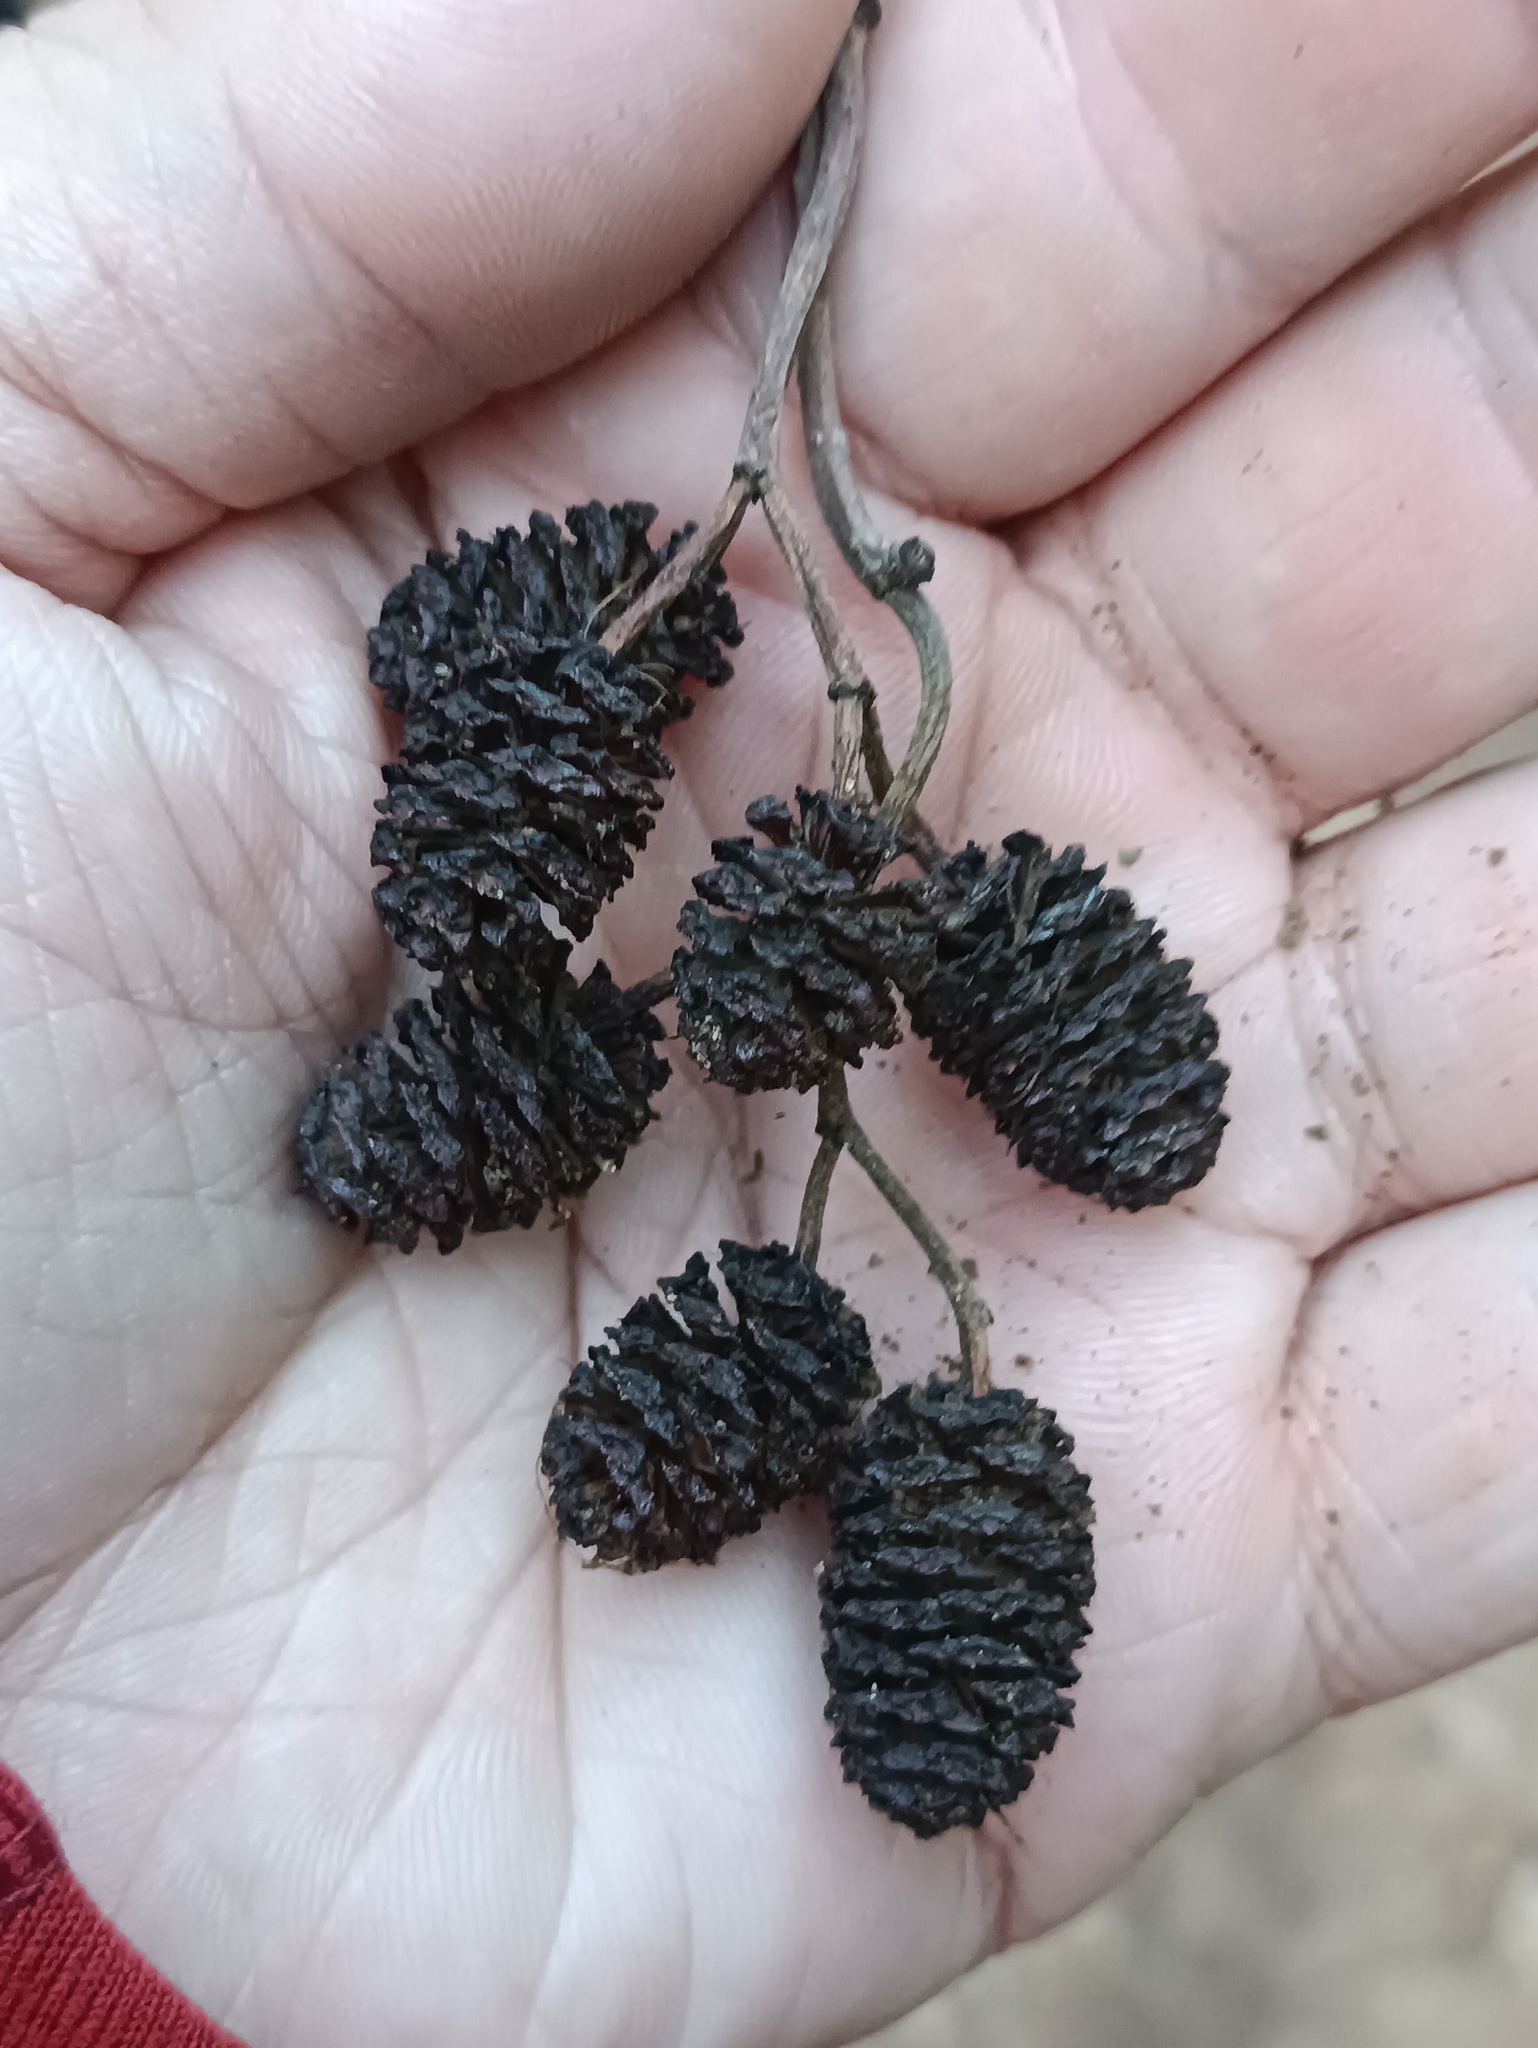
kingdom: Plantae
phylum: Tracheophyta
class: Magnoliopsida
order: Fagales
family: Betulaceae
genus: Alnus
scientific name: Alnus glutinosa
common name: Black alder
